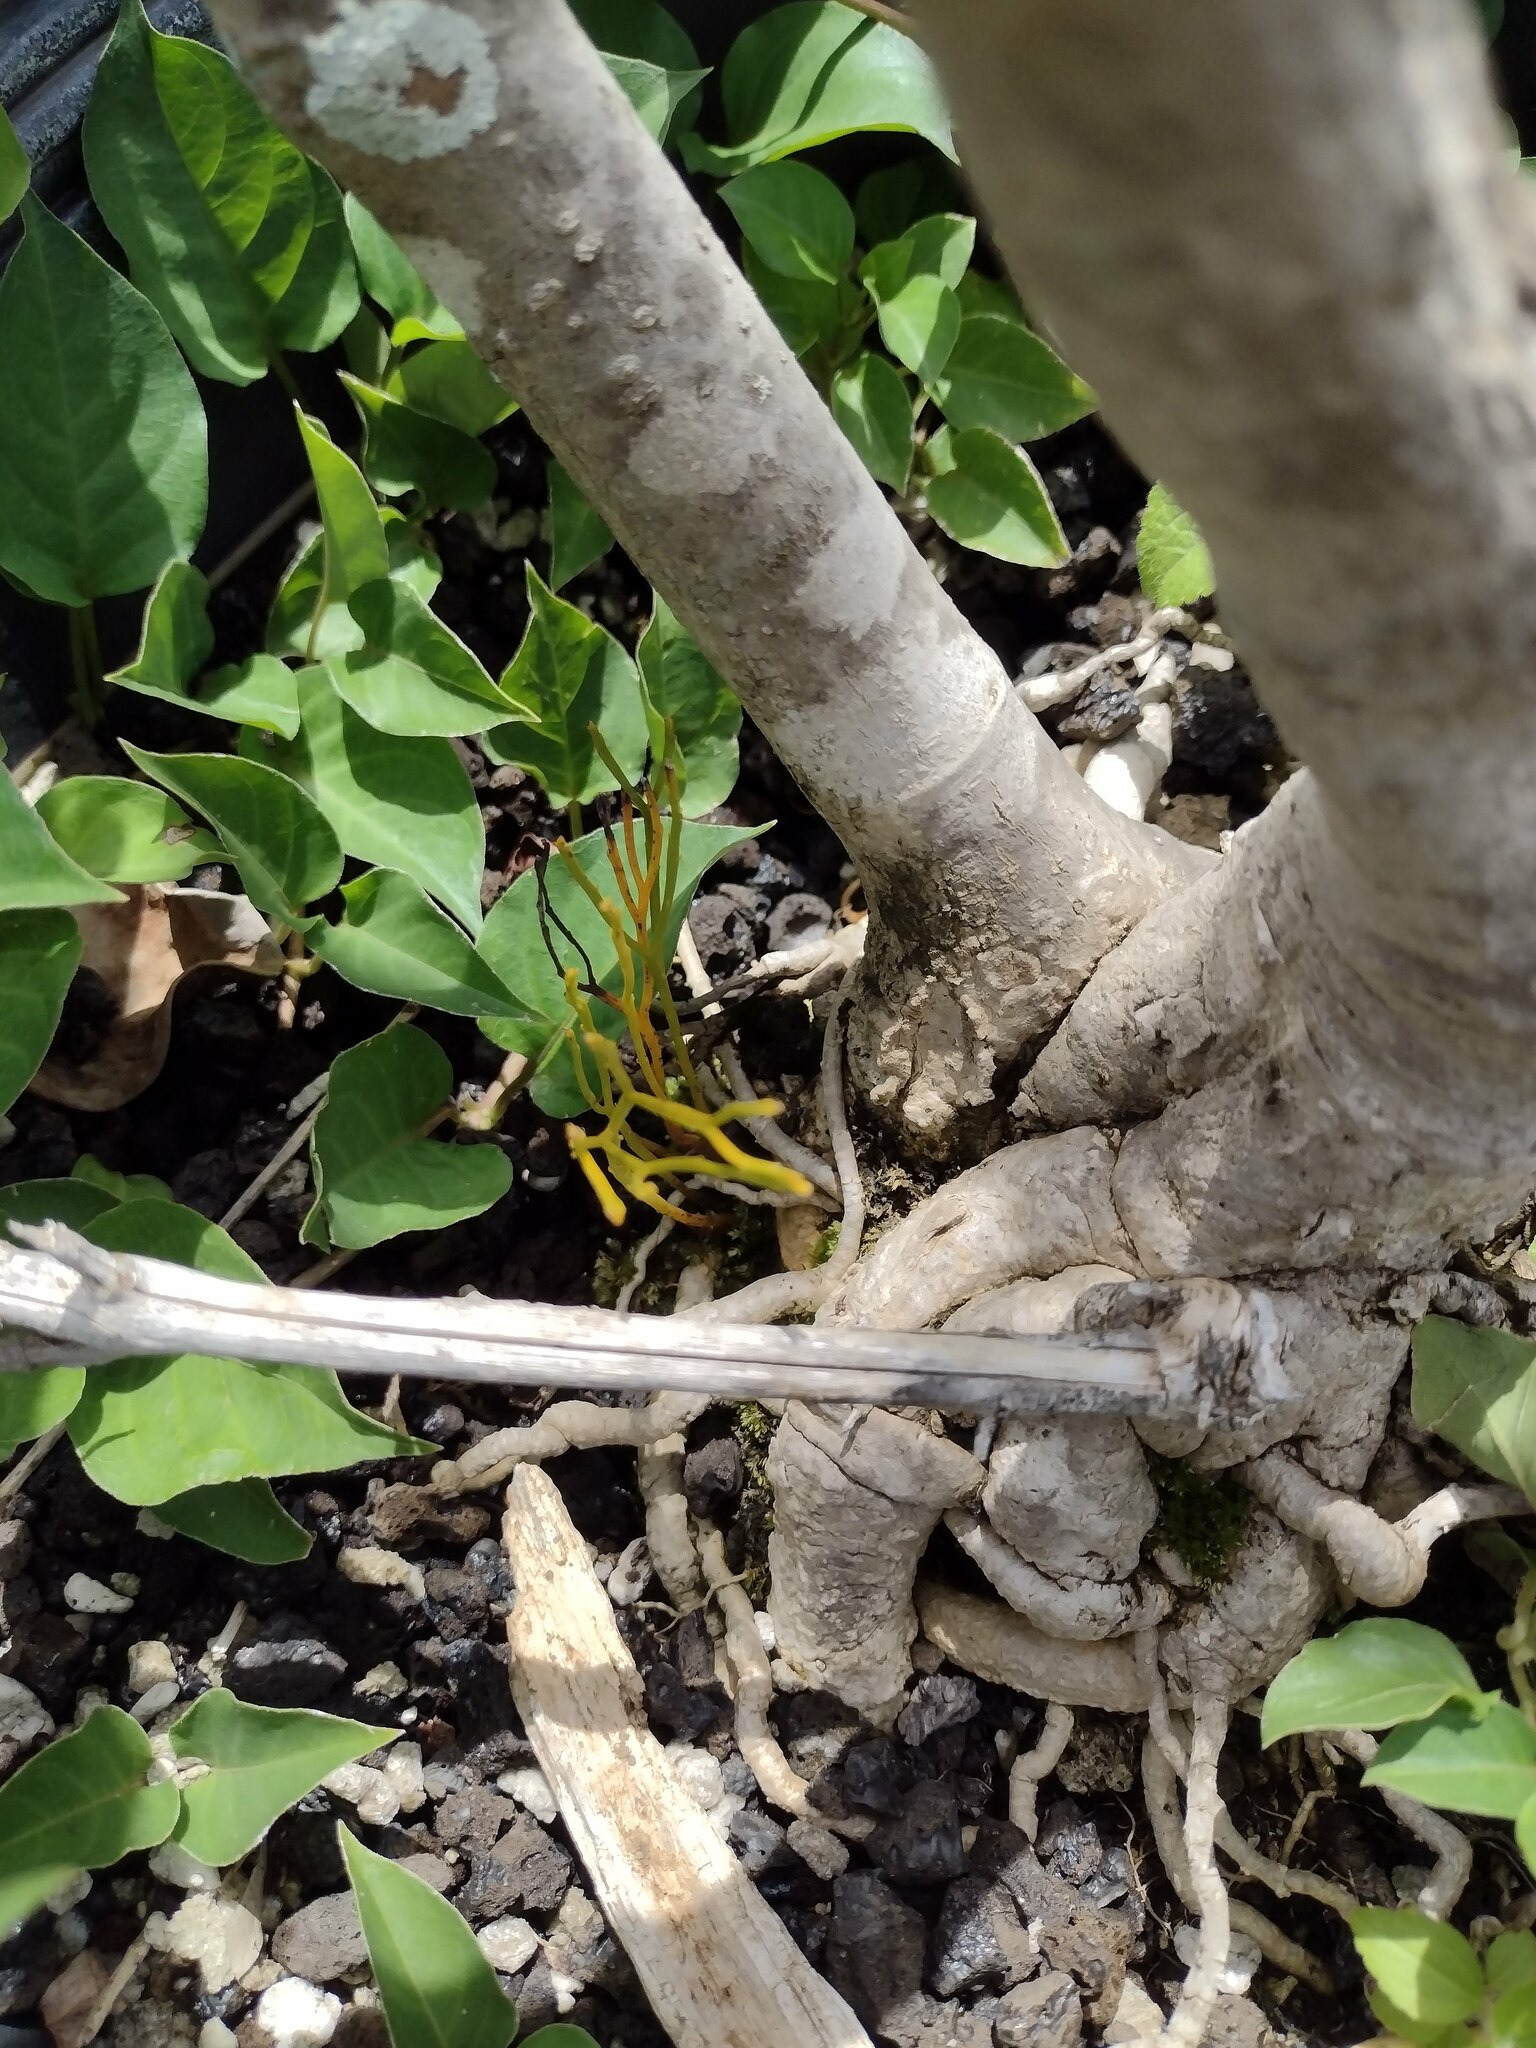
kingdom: Plantae
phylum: Tracheophyta
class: Polypodiopsida
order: Psilotales
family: Psilotaceae
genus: Psilotum
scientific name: Psilotum nudum
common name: Skeleton fork fern
